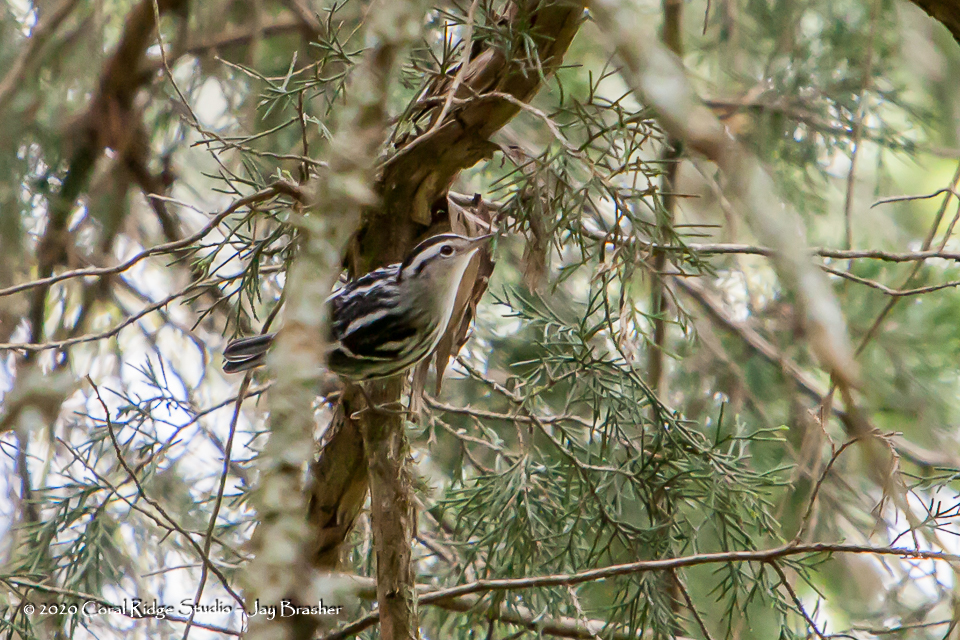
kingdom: Animalia
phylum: Chordata
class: Aves
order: Passeriformes
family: Parulidae
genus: Mniotilta
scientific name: Mniotilta varia
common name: Black-and-white warbler
